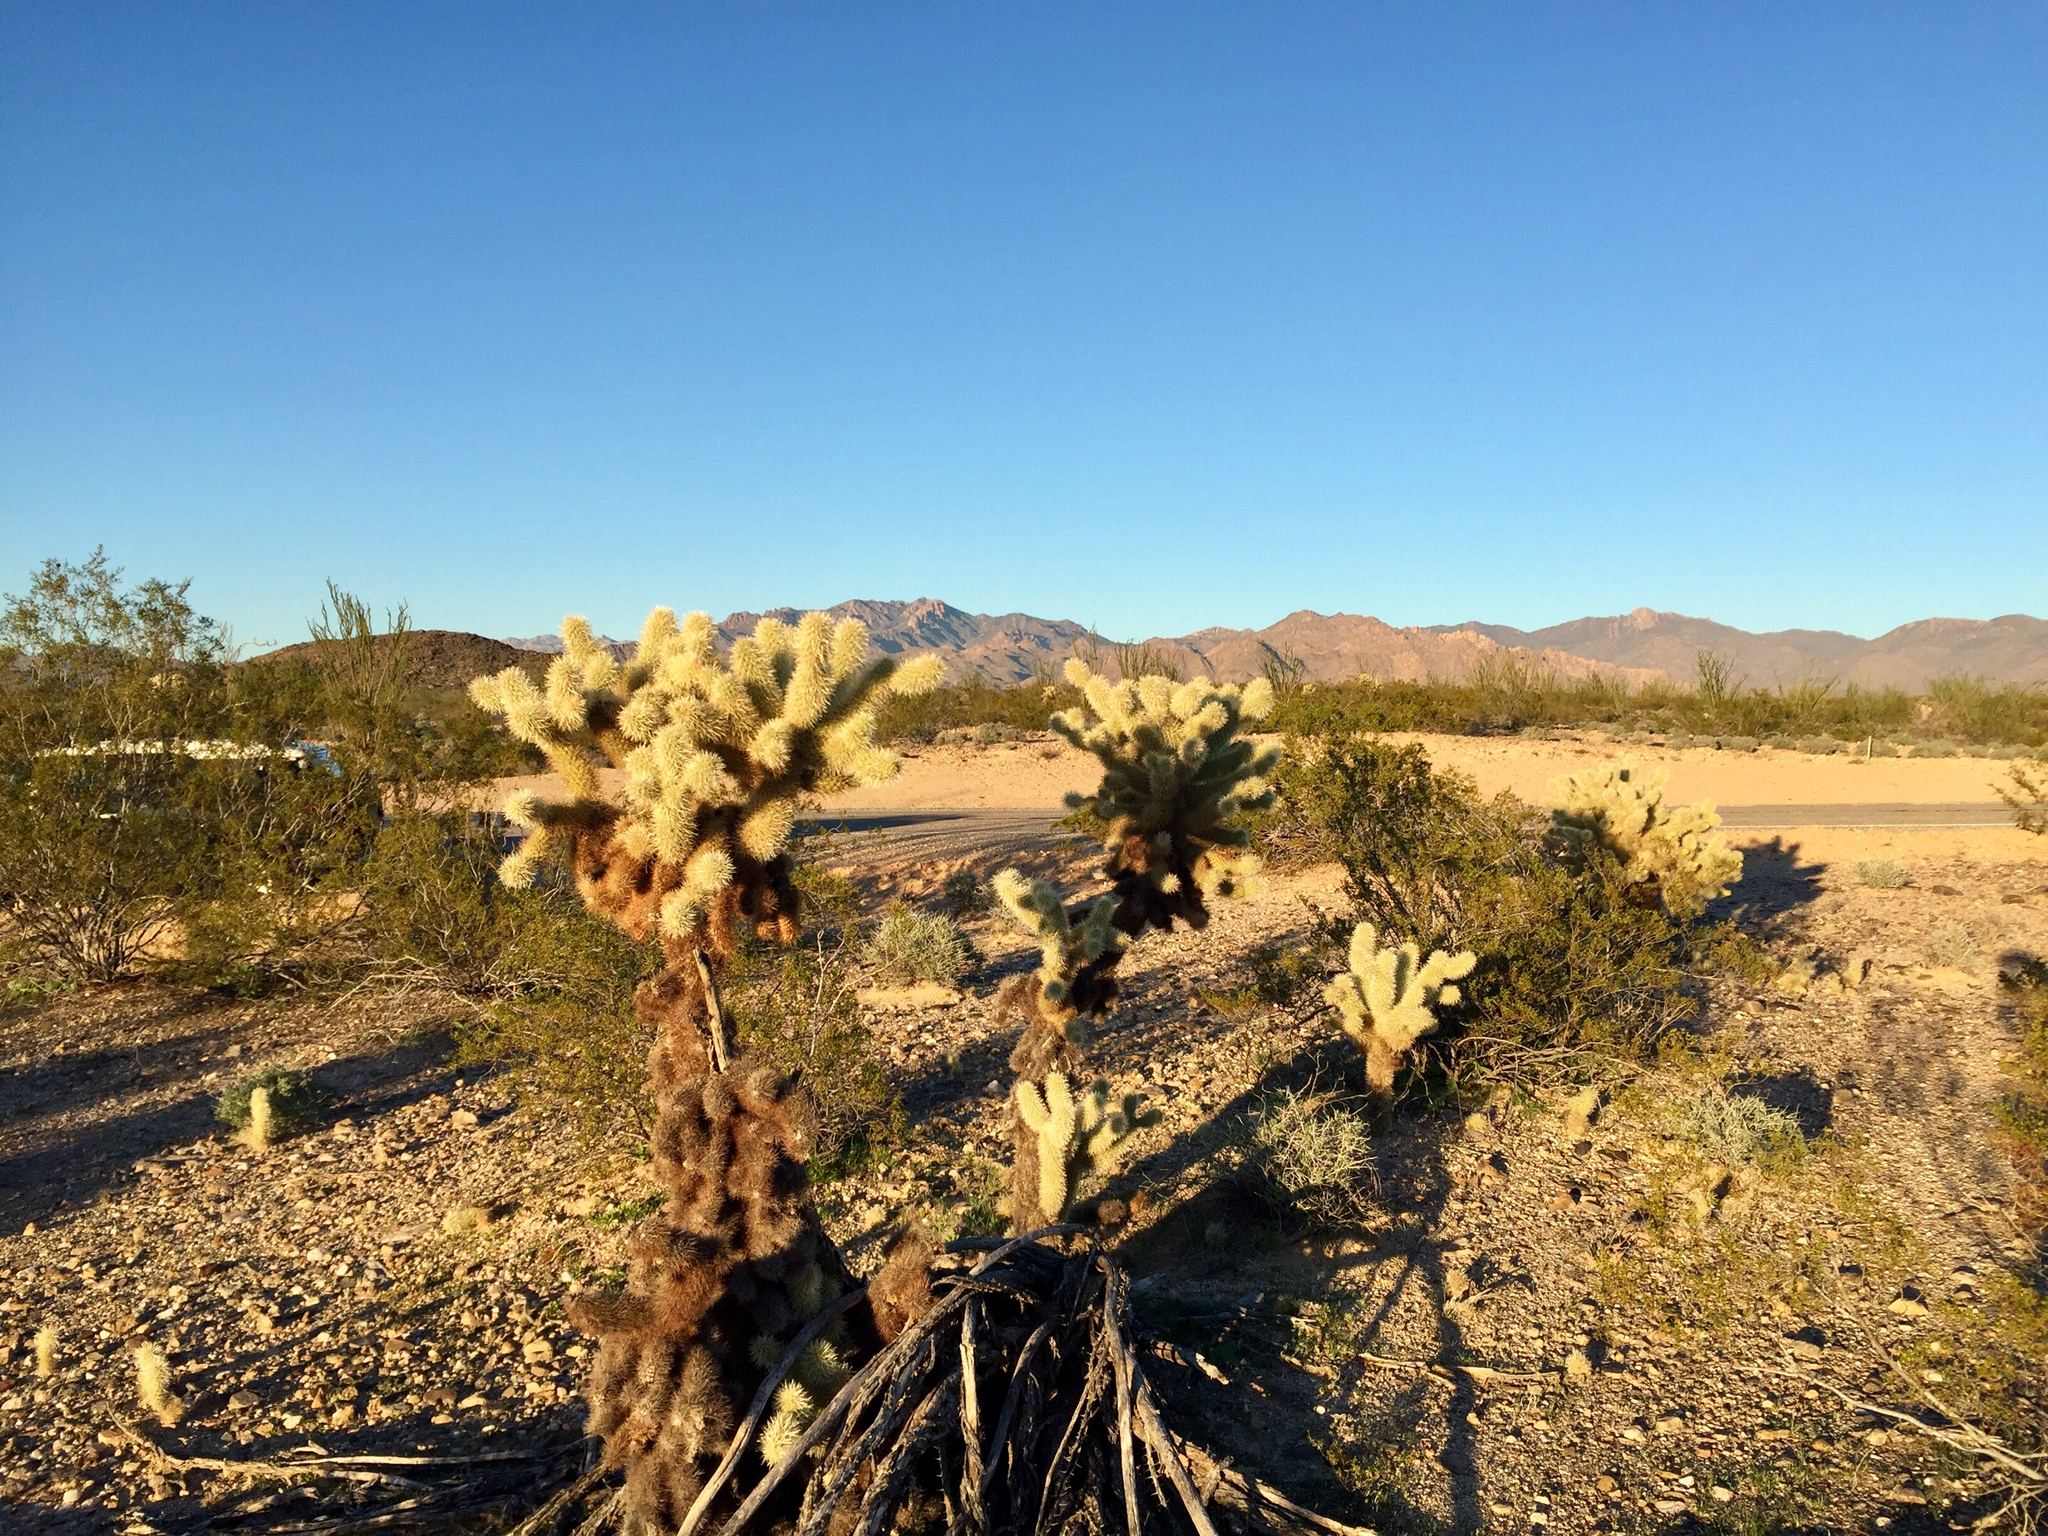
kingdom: Plantae
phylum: Tracheophyta
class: Magnoliopsida
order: Caryophyllales
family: Cactaceae
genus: Cylindropuntia
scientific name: Cylindropuntia fosbergii
